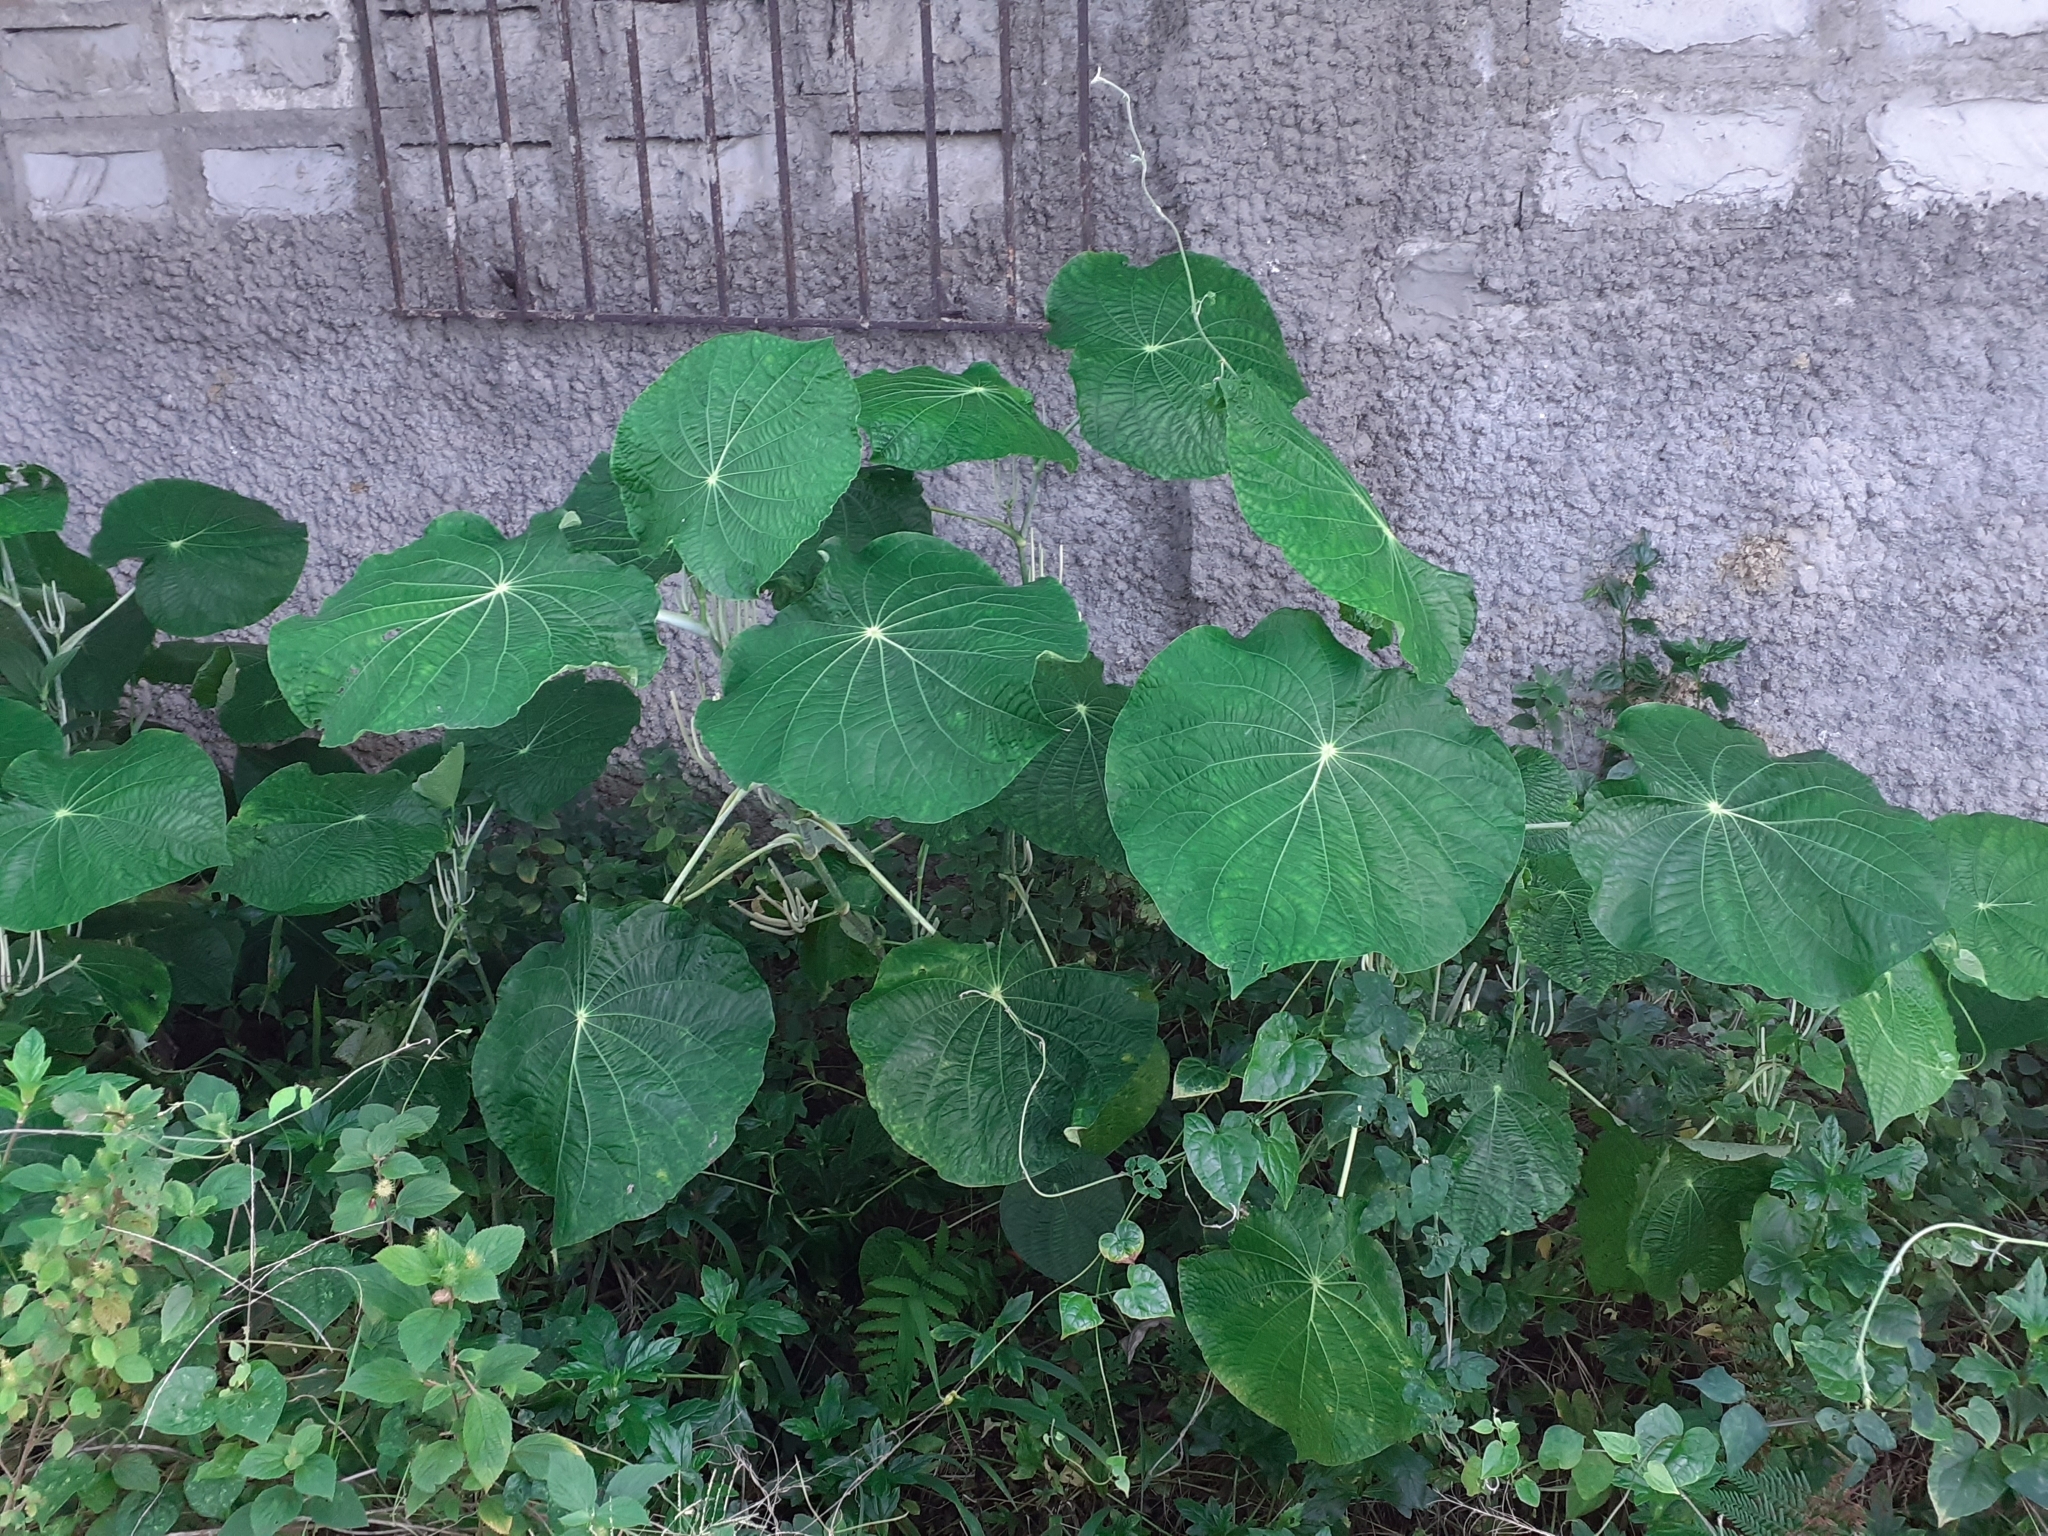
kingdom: Plantae
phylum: Tracheophyta
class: Magnoliopsida
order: Piperales
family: Piperaceae
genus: Piper
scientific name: Piper peltatum
